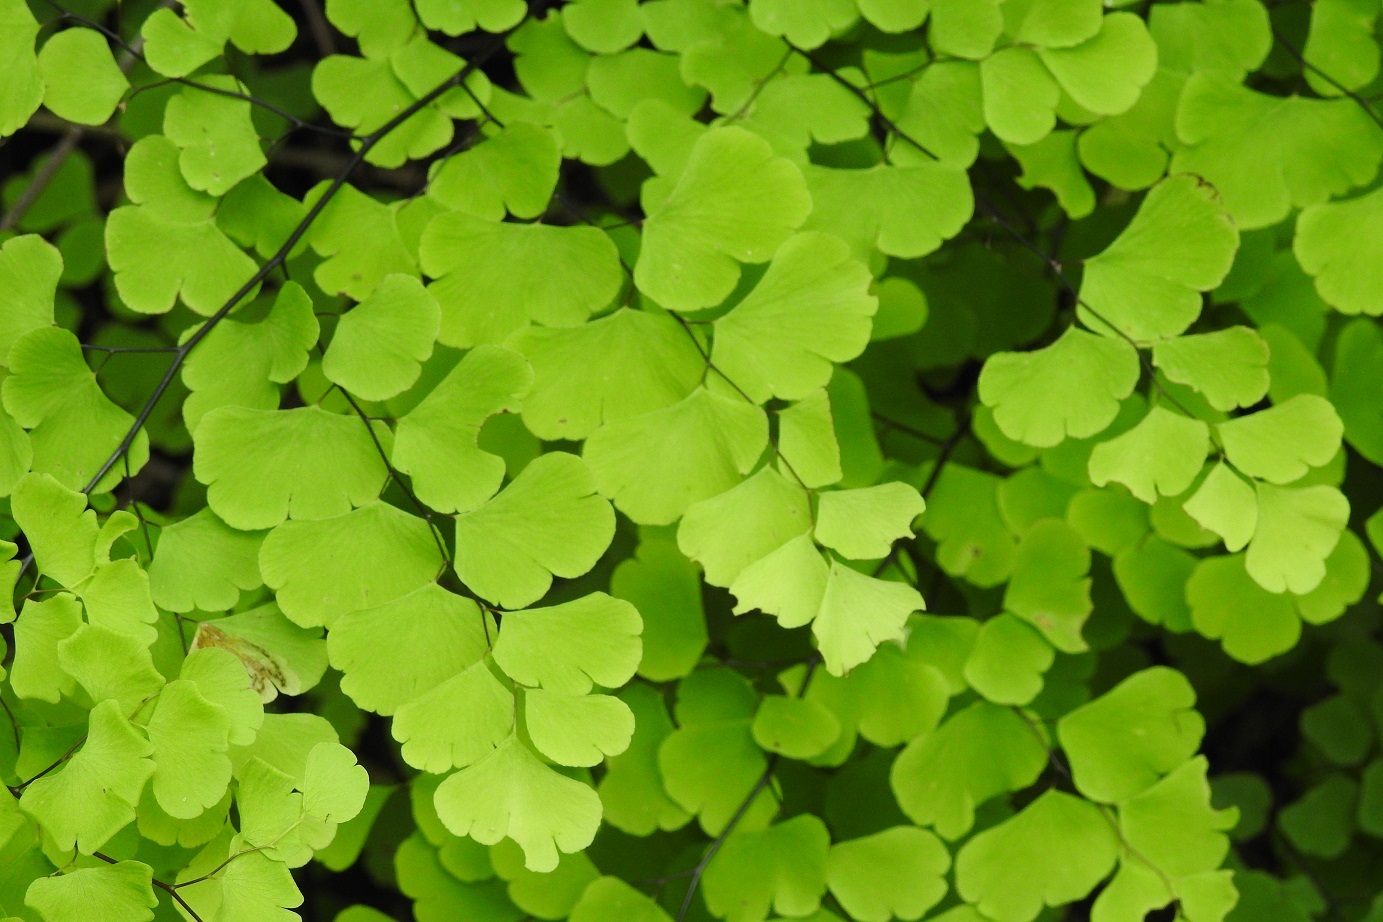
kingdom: Plantae
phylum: Tracheophyta
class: Polypodiopsida
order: Polypodiales
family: Pteridaceae
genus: Adiantum
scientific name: Adiantum braunii
